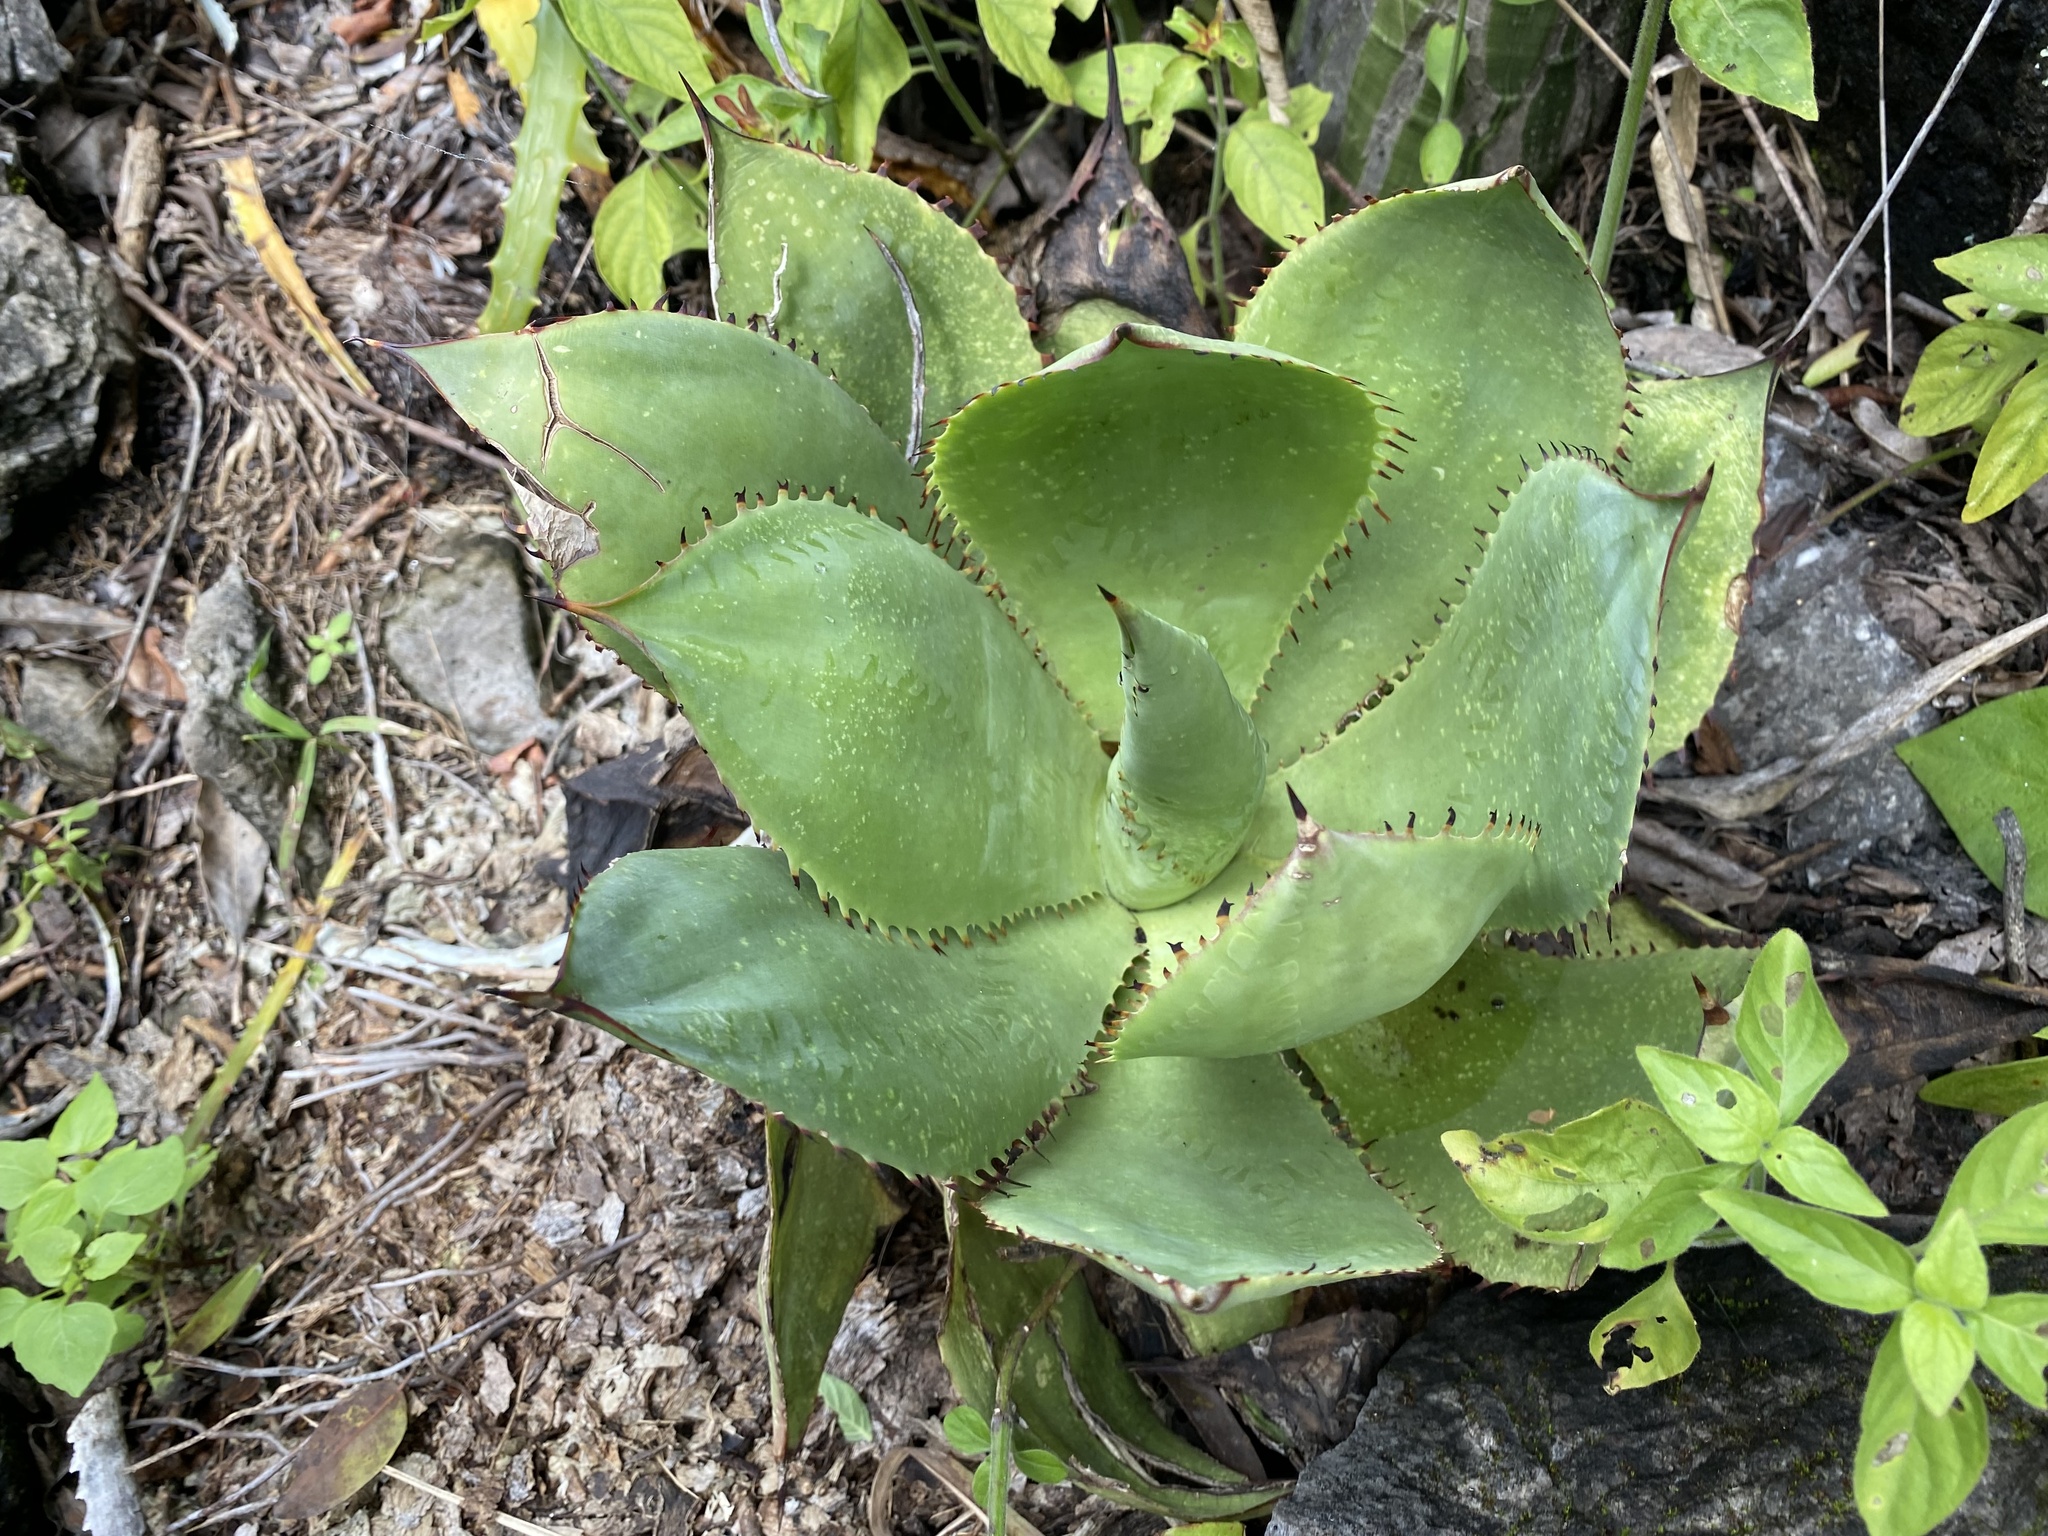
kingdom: Plantae
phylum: Tracheophyta
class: Liliopsida
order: Asparagales
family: Asparagaceae
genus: Agave
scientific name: Agave mitis
